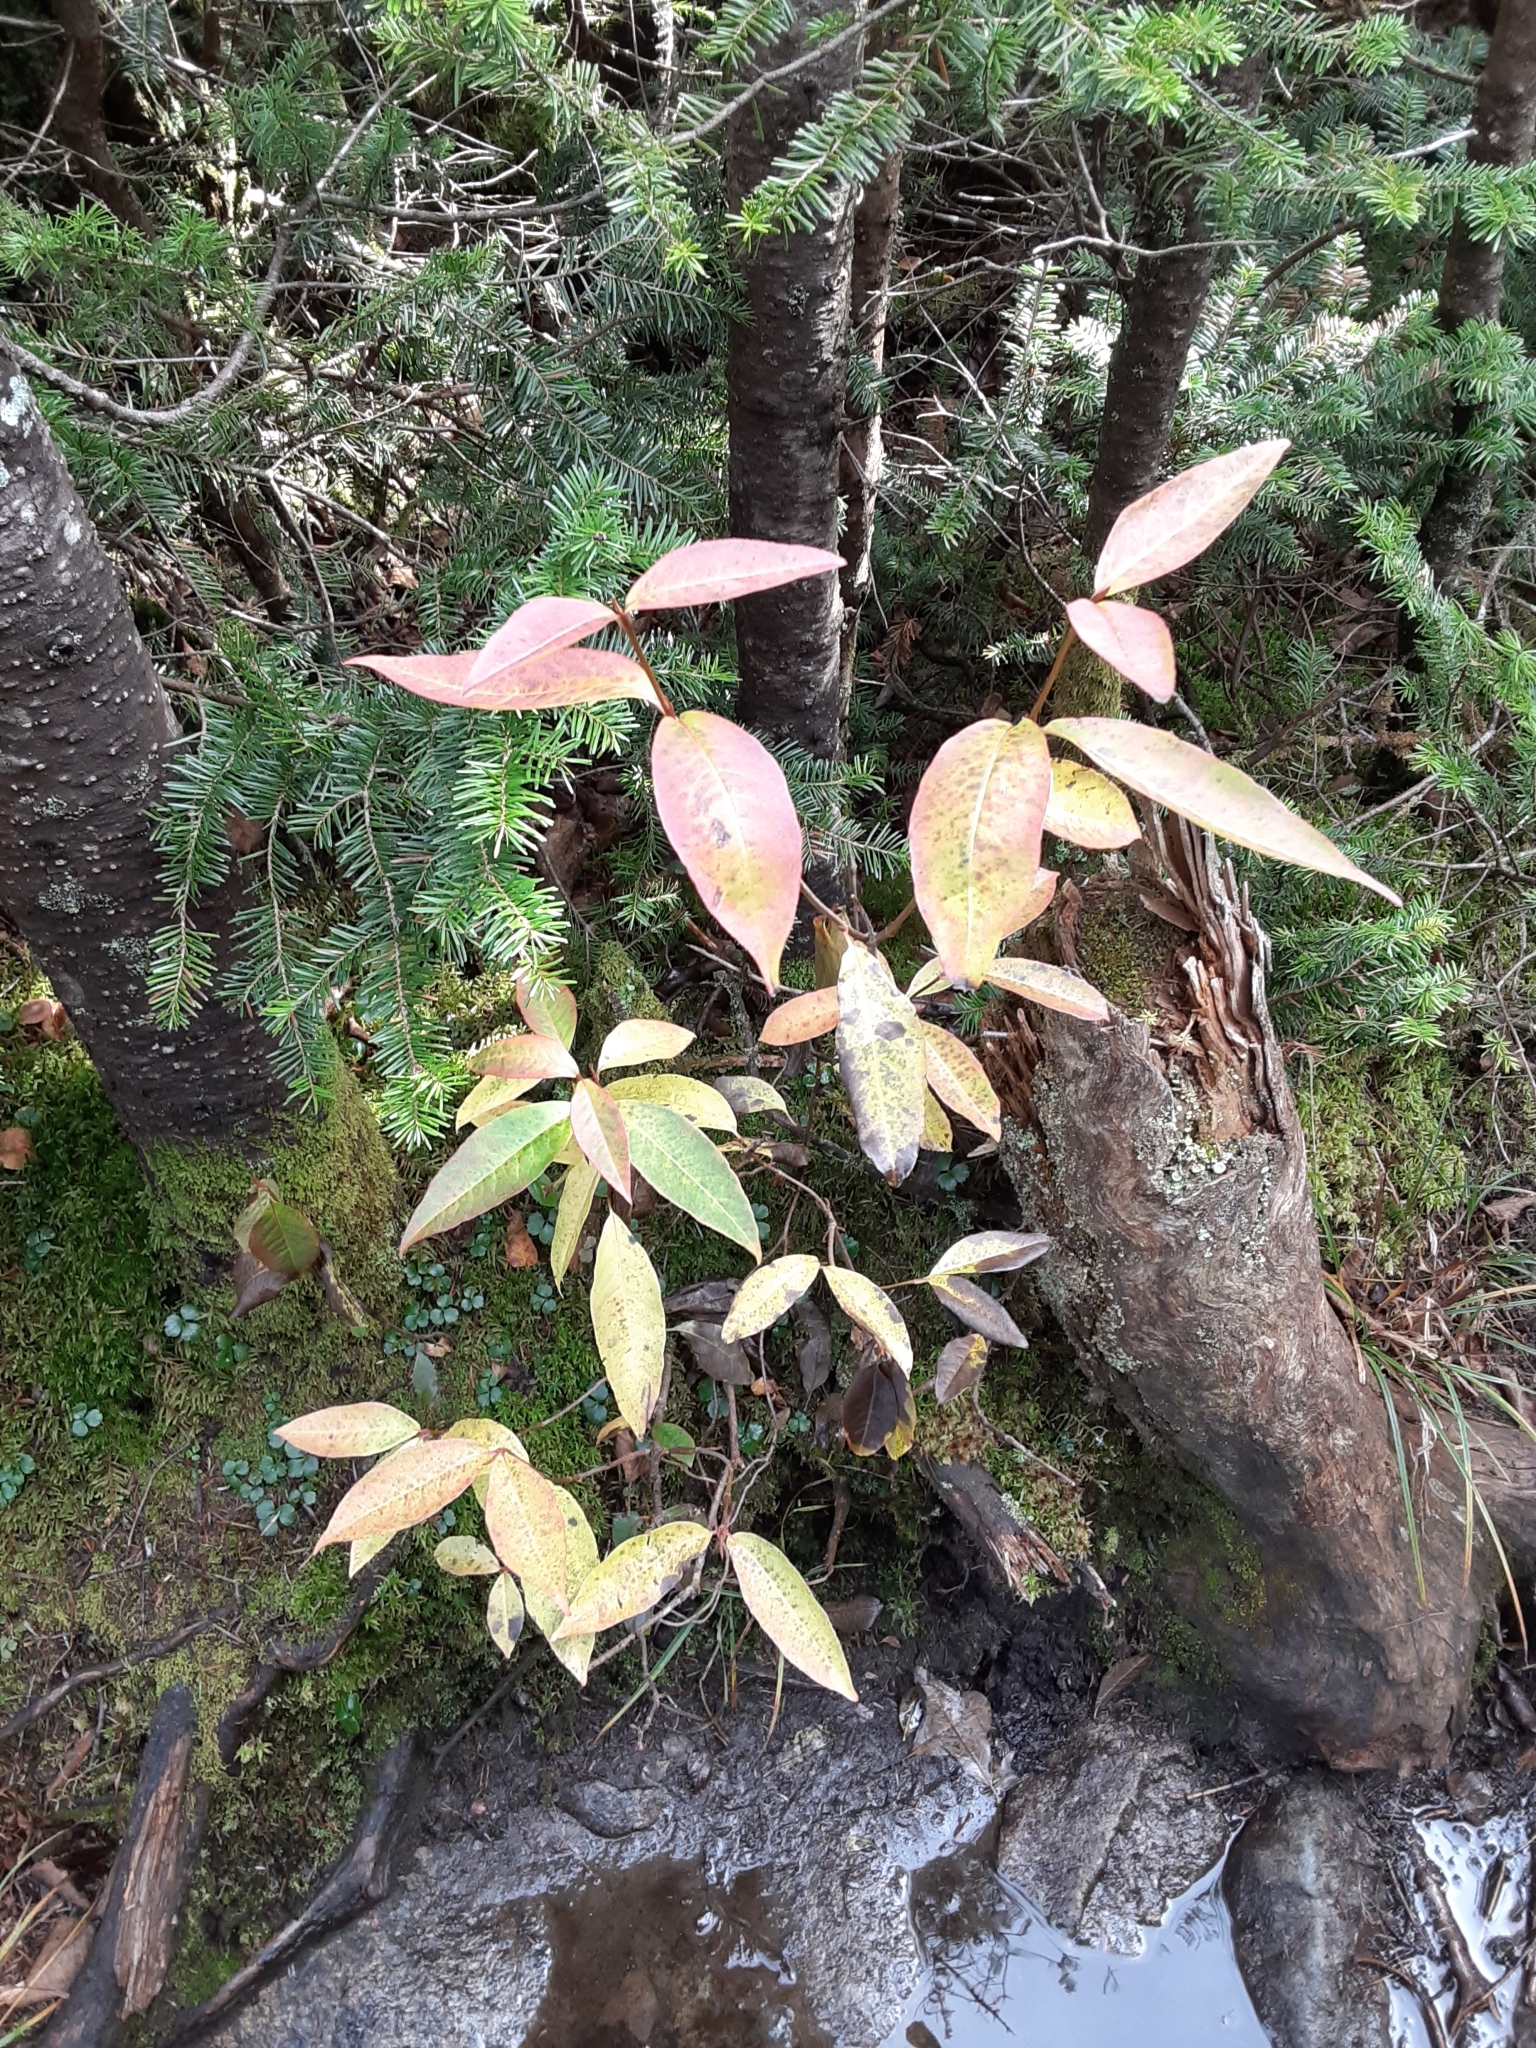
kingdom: Plantae
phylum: Tracheophyta
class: Magnoliopsida
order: Dipsacales
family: Viburnaceae
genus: Viburnum
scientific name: Viburnum cassinoides
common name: Swamp haw
